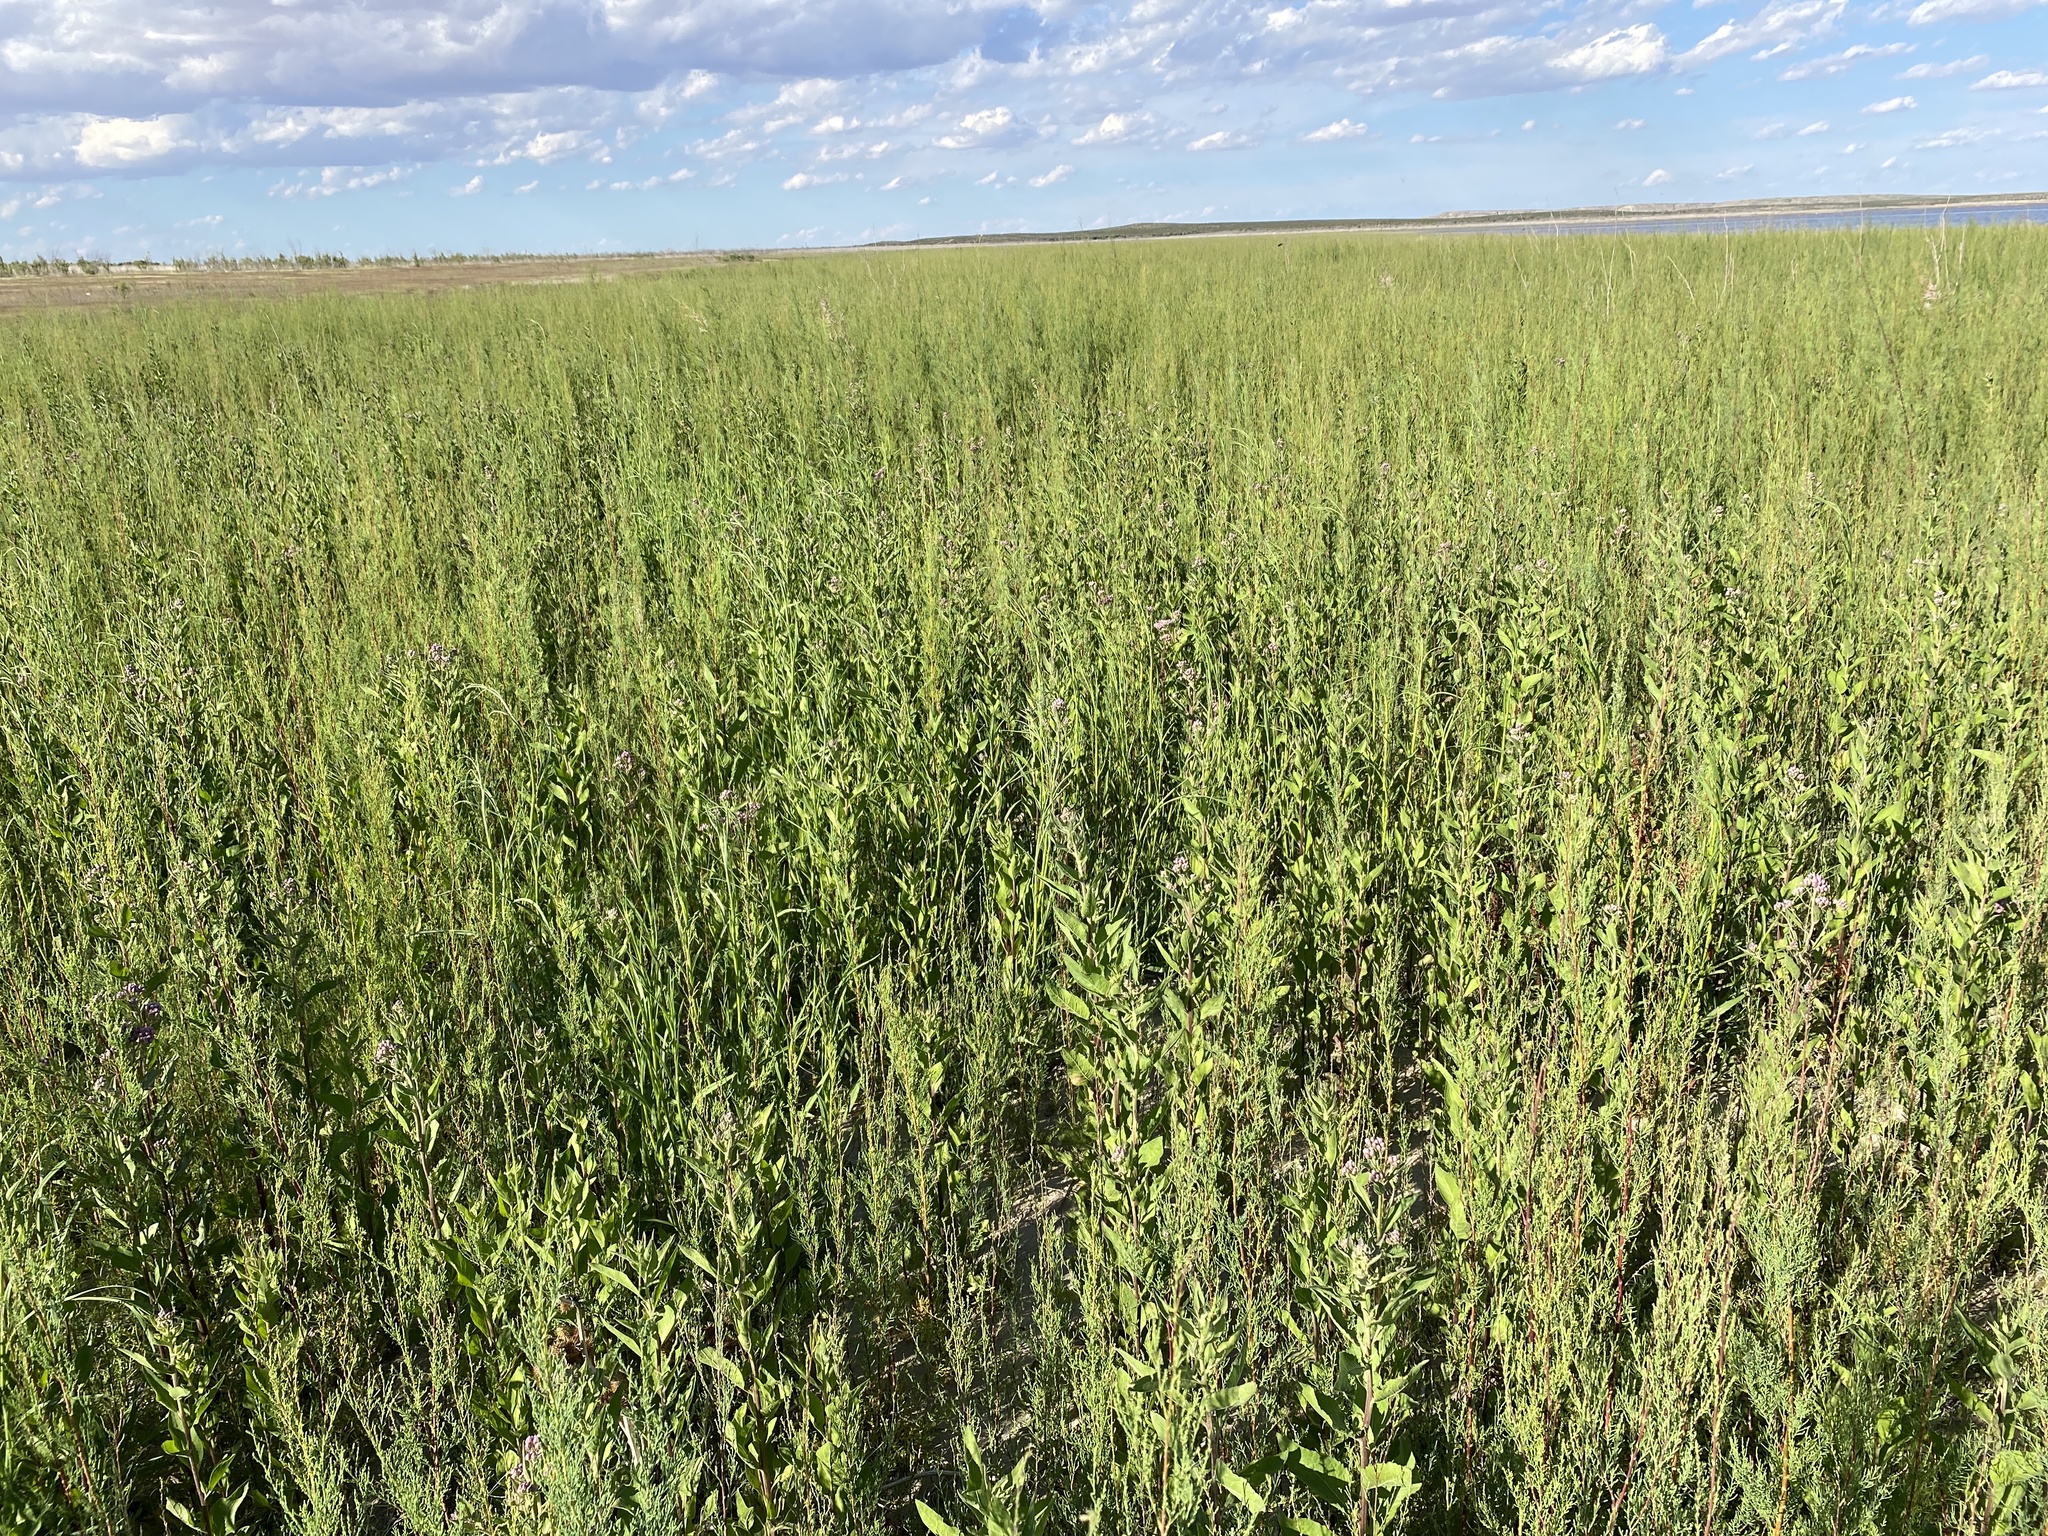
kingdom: Plantae
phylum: Tracheophyta
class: Magnoliopsida
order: Asterales
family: Asteraceae
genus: Pluchea
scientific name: Pluchea odorata
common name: Saltmarsh fleabane
